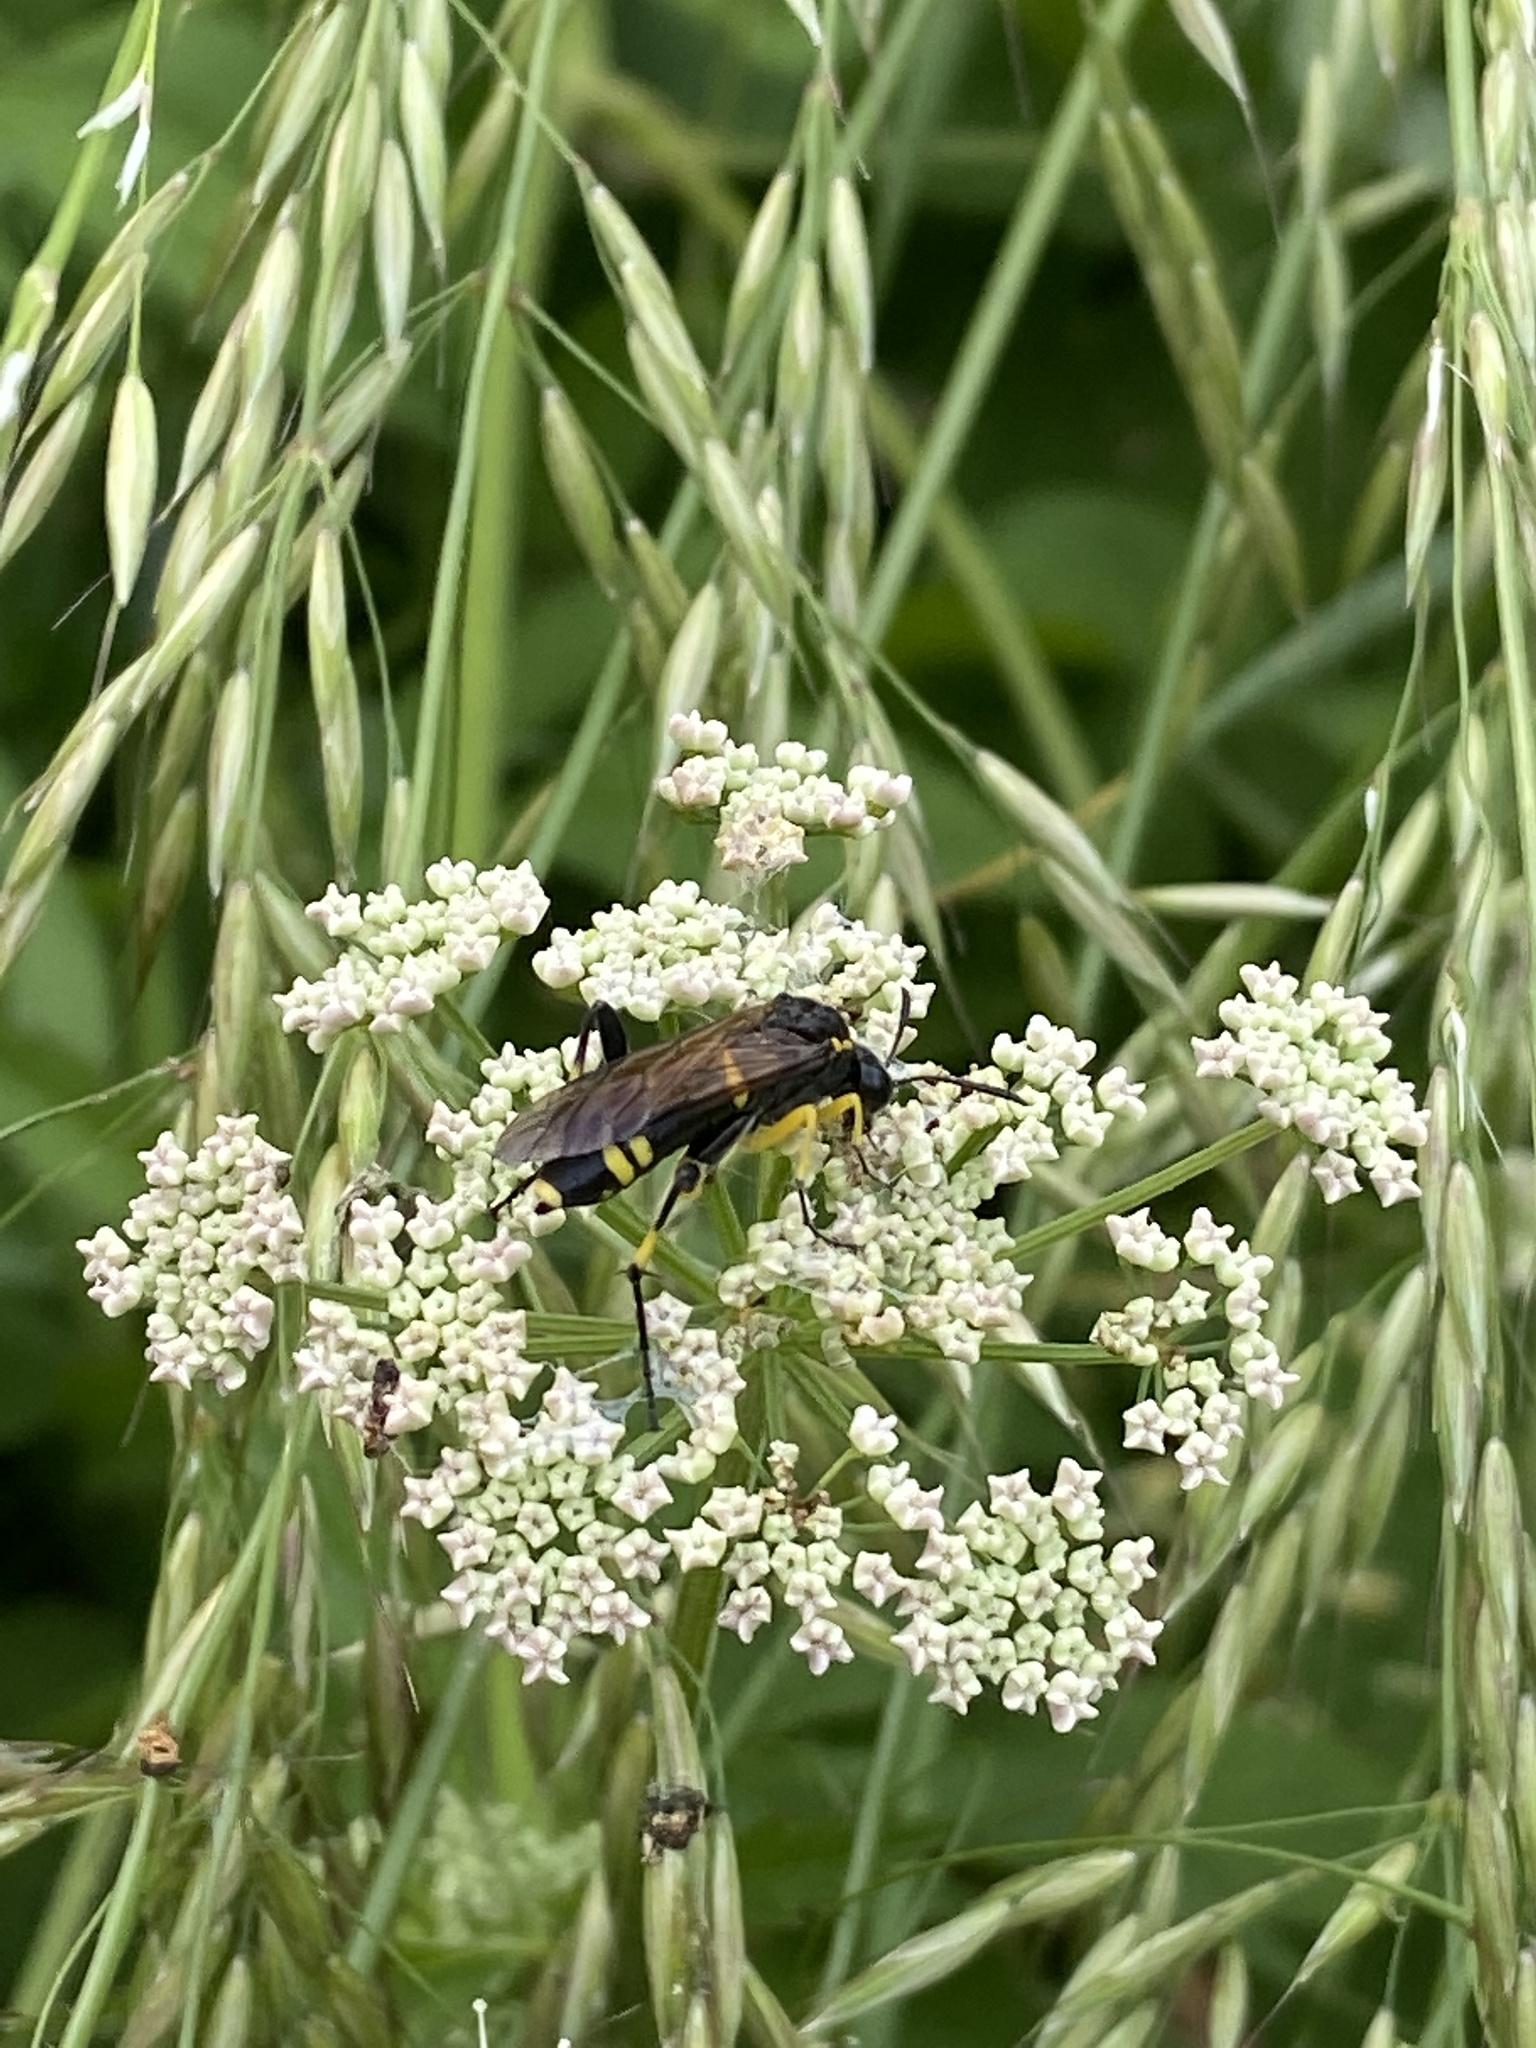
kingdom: Animalia
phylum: Arthropoda
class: Insecta
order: Hymenoptera
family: Tenthredinidae
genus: Macrophya
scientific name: Macrophya montana
